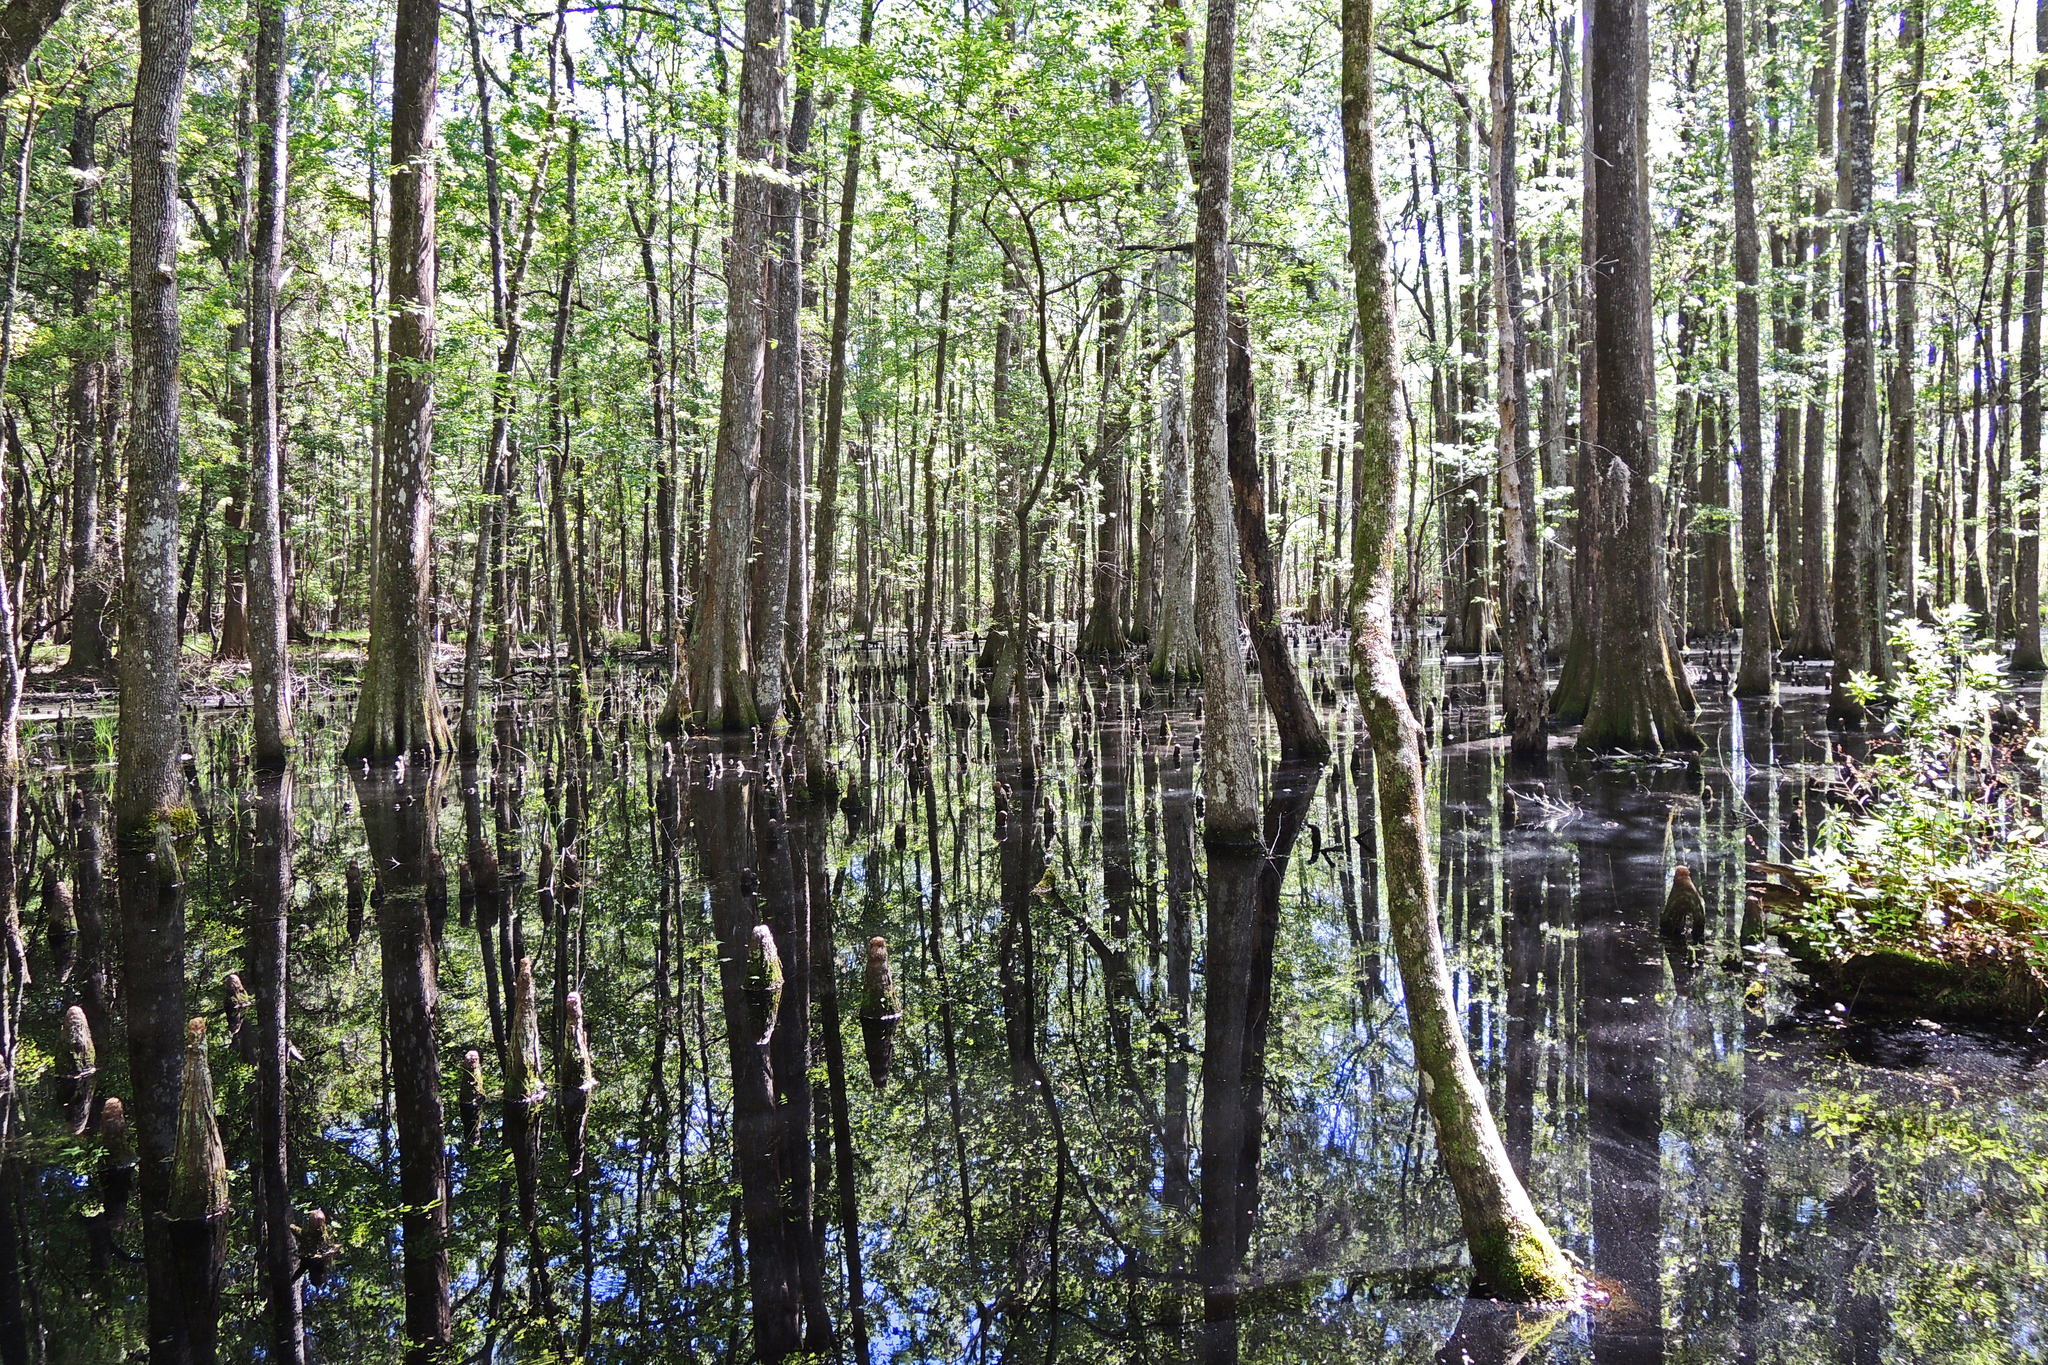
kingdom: Plantae
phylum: Tracheophyta
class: Pinopsida
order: Pinales
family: Cupressaceae
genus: Taxodium
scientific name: Taxodium distichum
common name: Bald cypress
